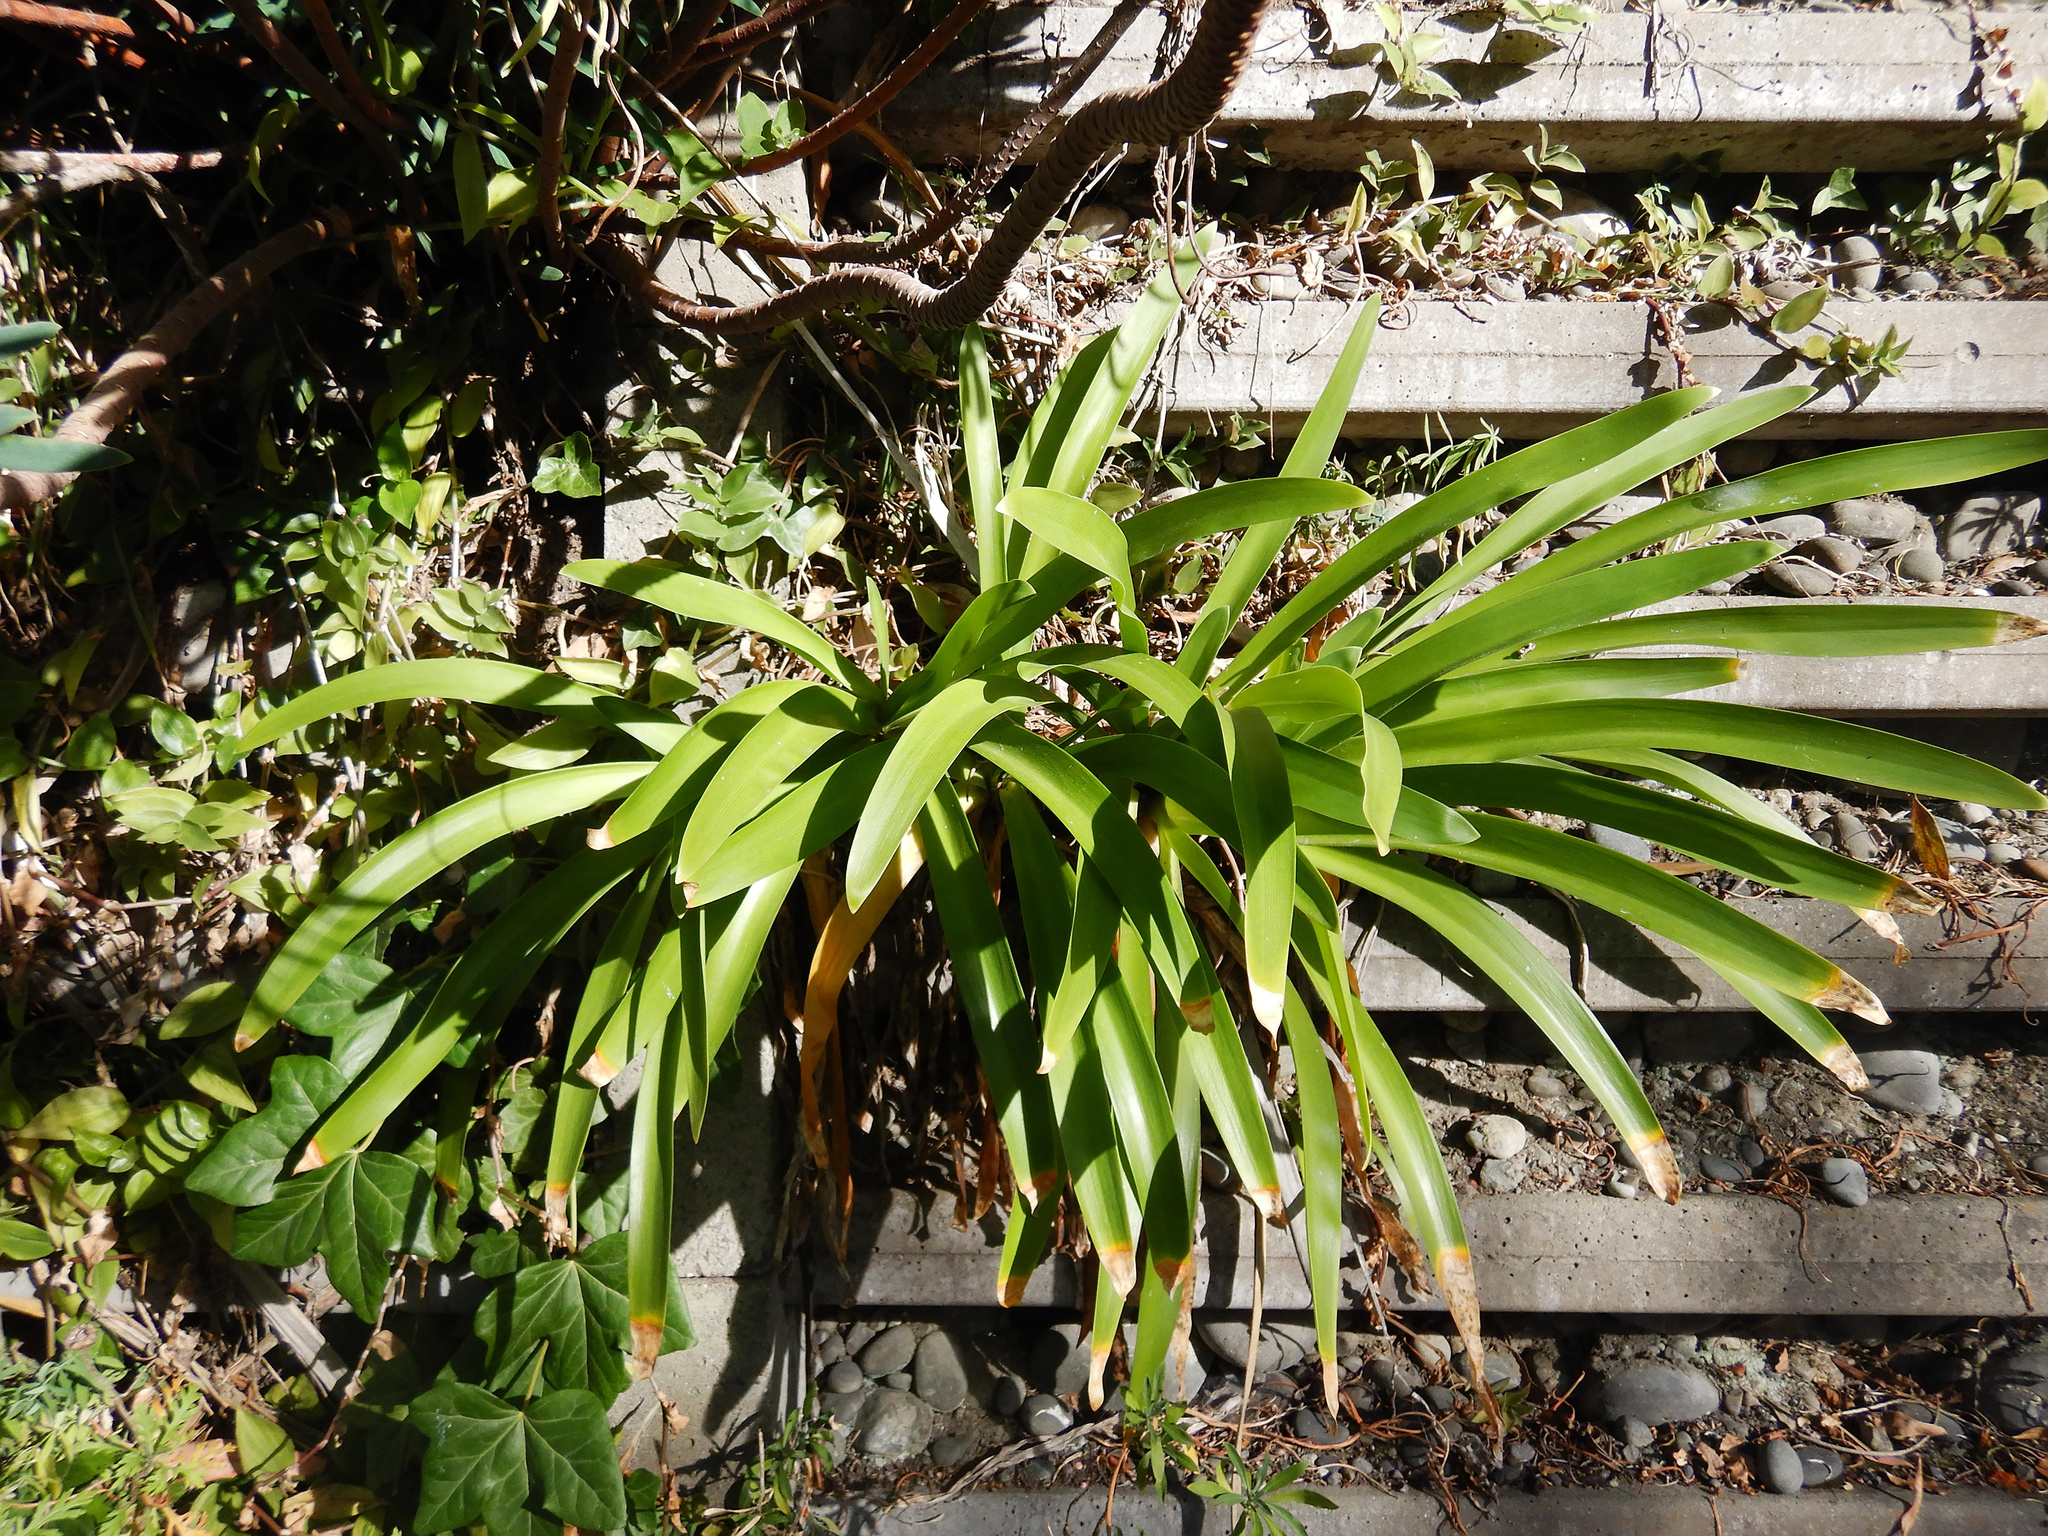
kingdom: Plantae
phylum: Tracheophyta
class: Liliopsida
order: Asparagales
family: Amaryllidaceae
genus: Agapanthus
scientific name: Agapanthus praecox
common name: African-lily
